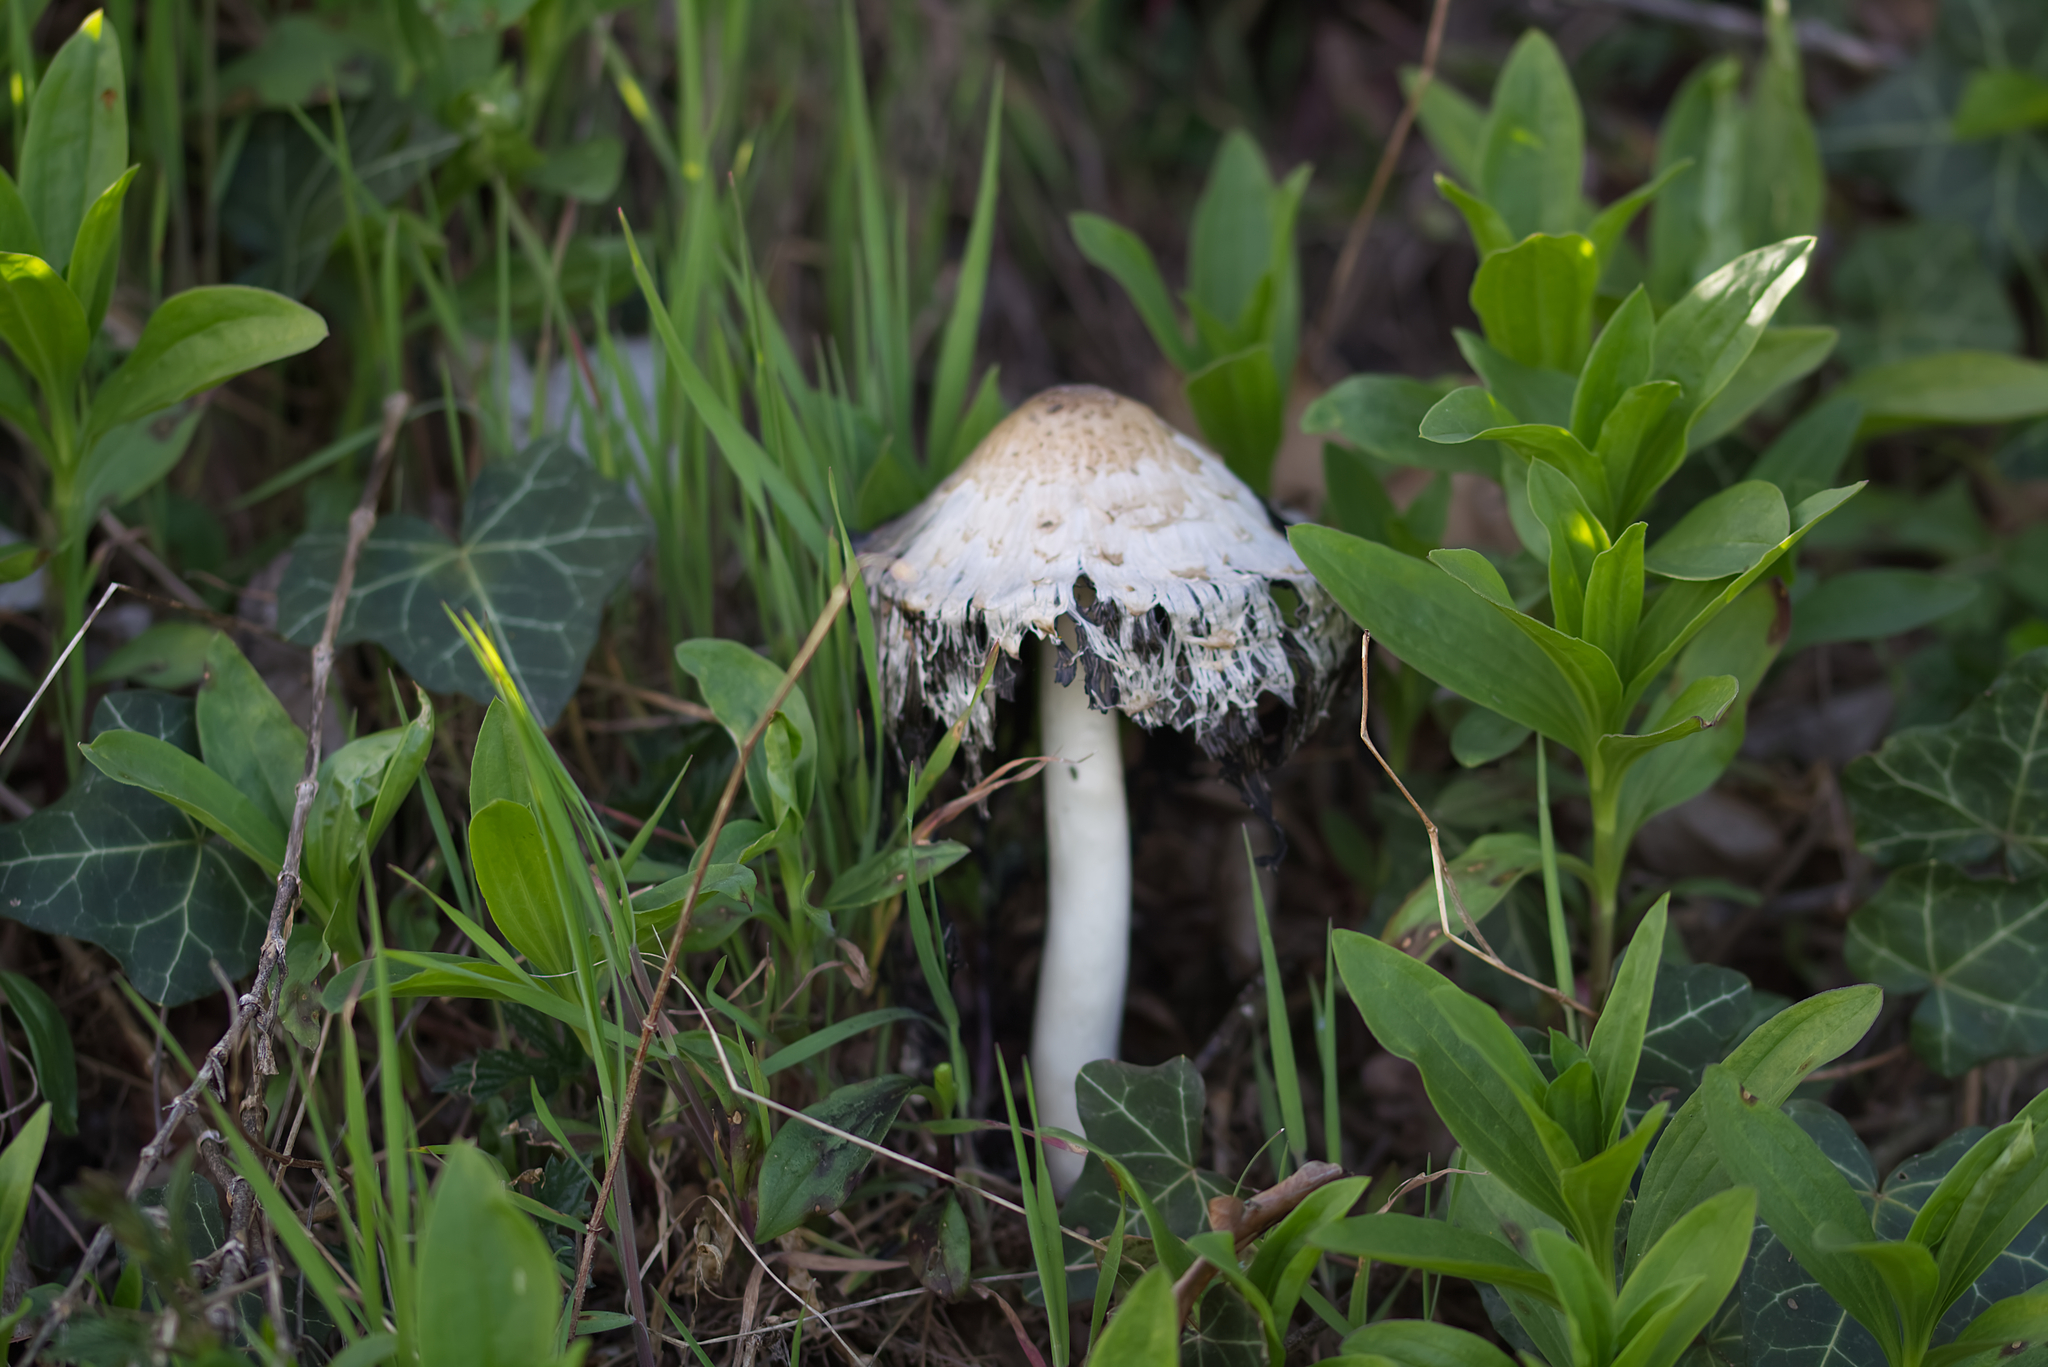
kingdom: Fungi
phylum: Basidiomycota
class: Agaricomycetes
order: Agaricales
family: Agaricaceae
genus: Coprinus
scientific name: Coprinus comatus
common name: Lawyer's wig
